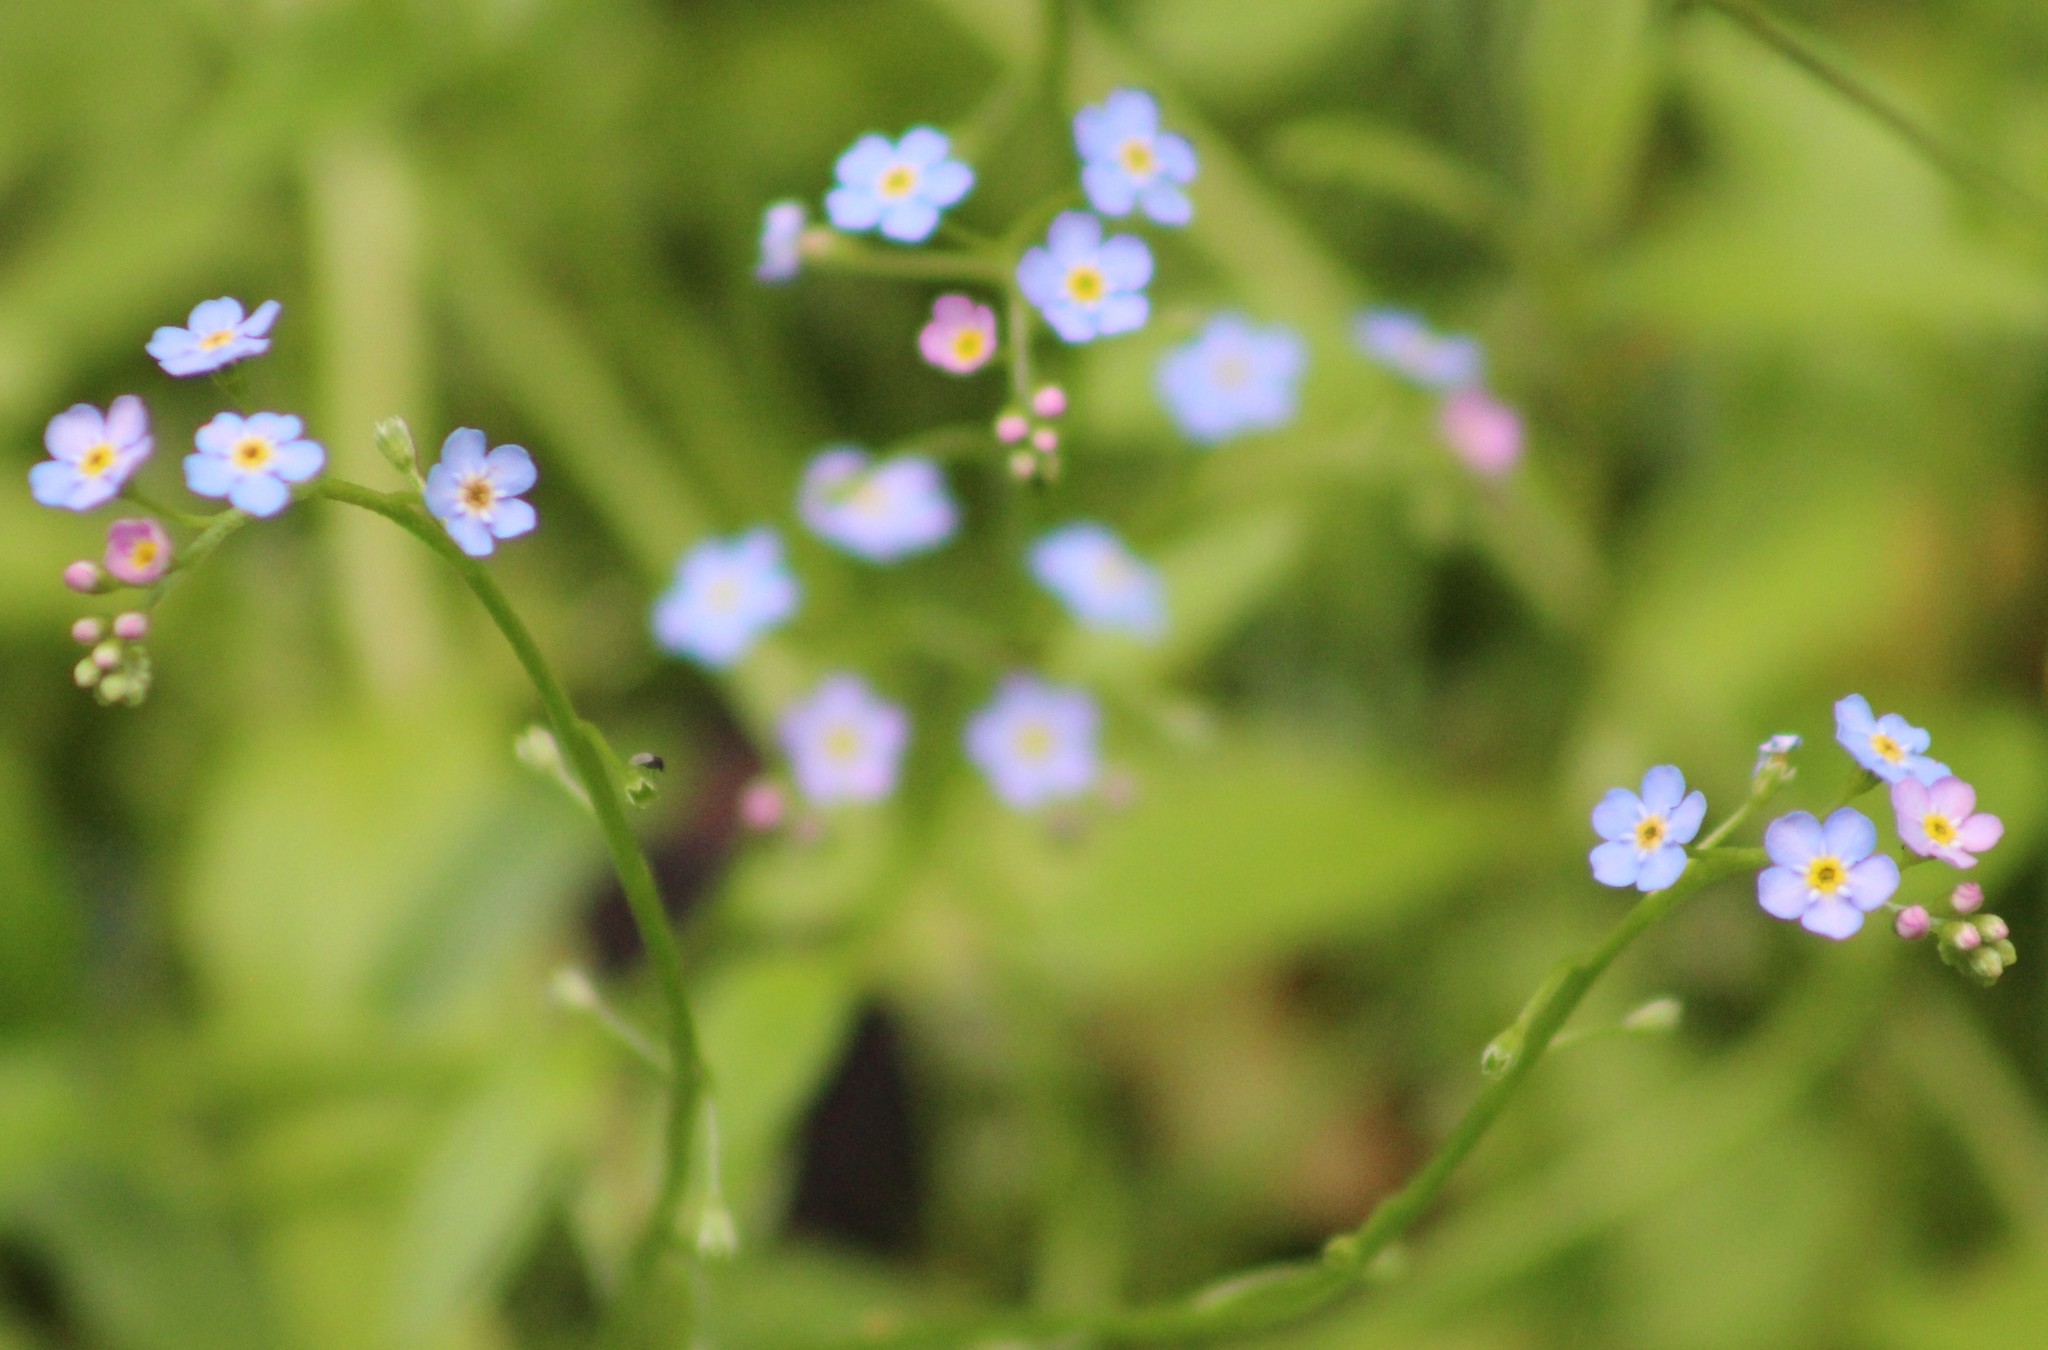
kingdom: Plantae
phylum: Tracheophyta
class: Magnoliopsida
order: Boraginales
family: Boraginaceae
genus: Myosotis
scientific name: Myosotis scorpioides
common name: Water forget-me-not
